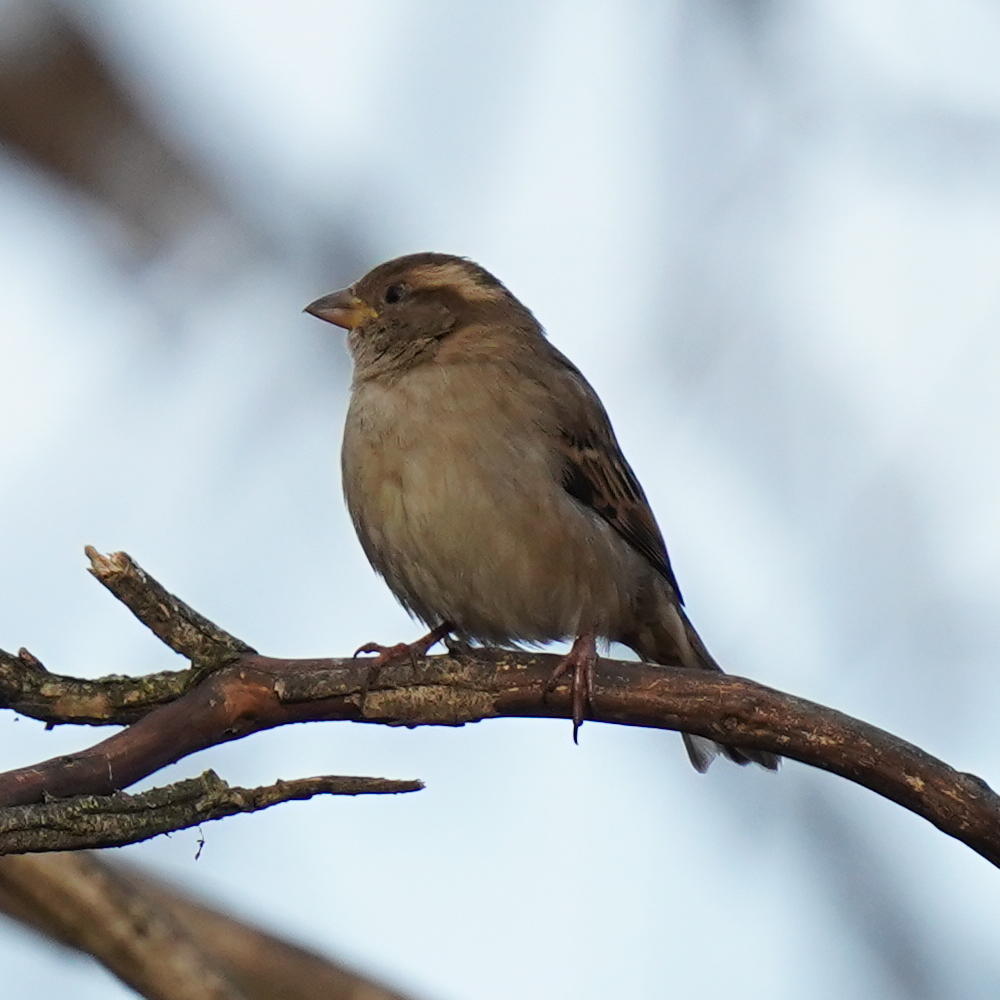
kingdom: Animalia
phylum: Chordata
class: Aves
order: Passeriformes
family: Passeridae
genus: Passer
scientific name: Passer domesticus
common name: House sparrow
